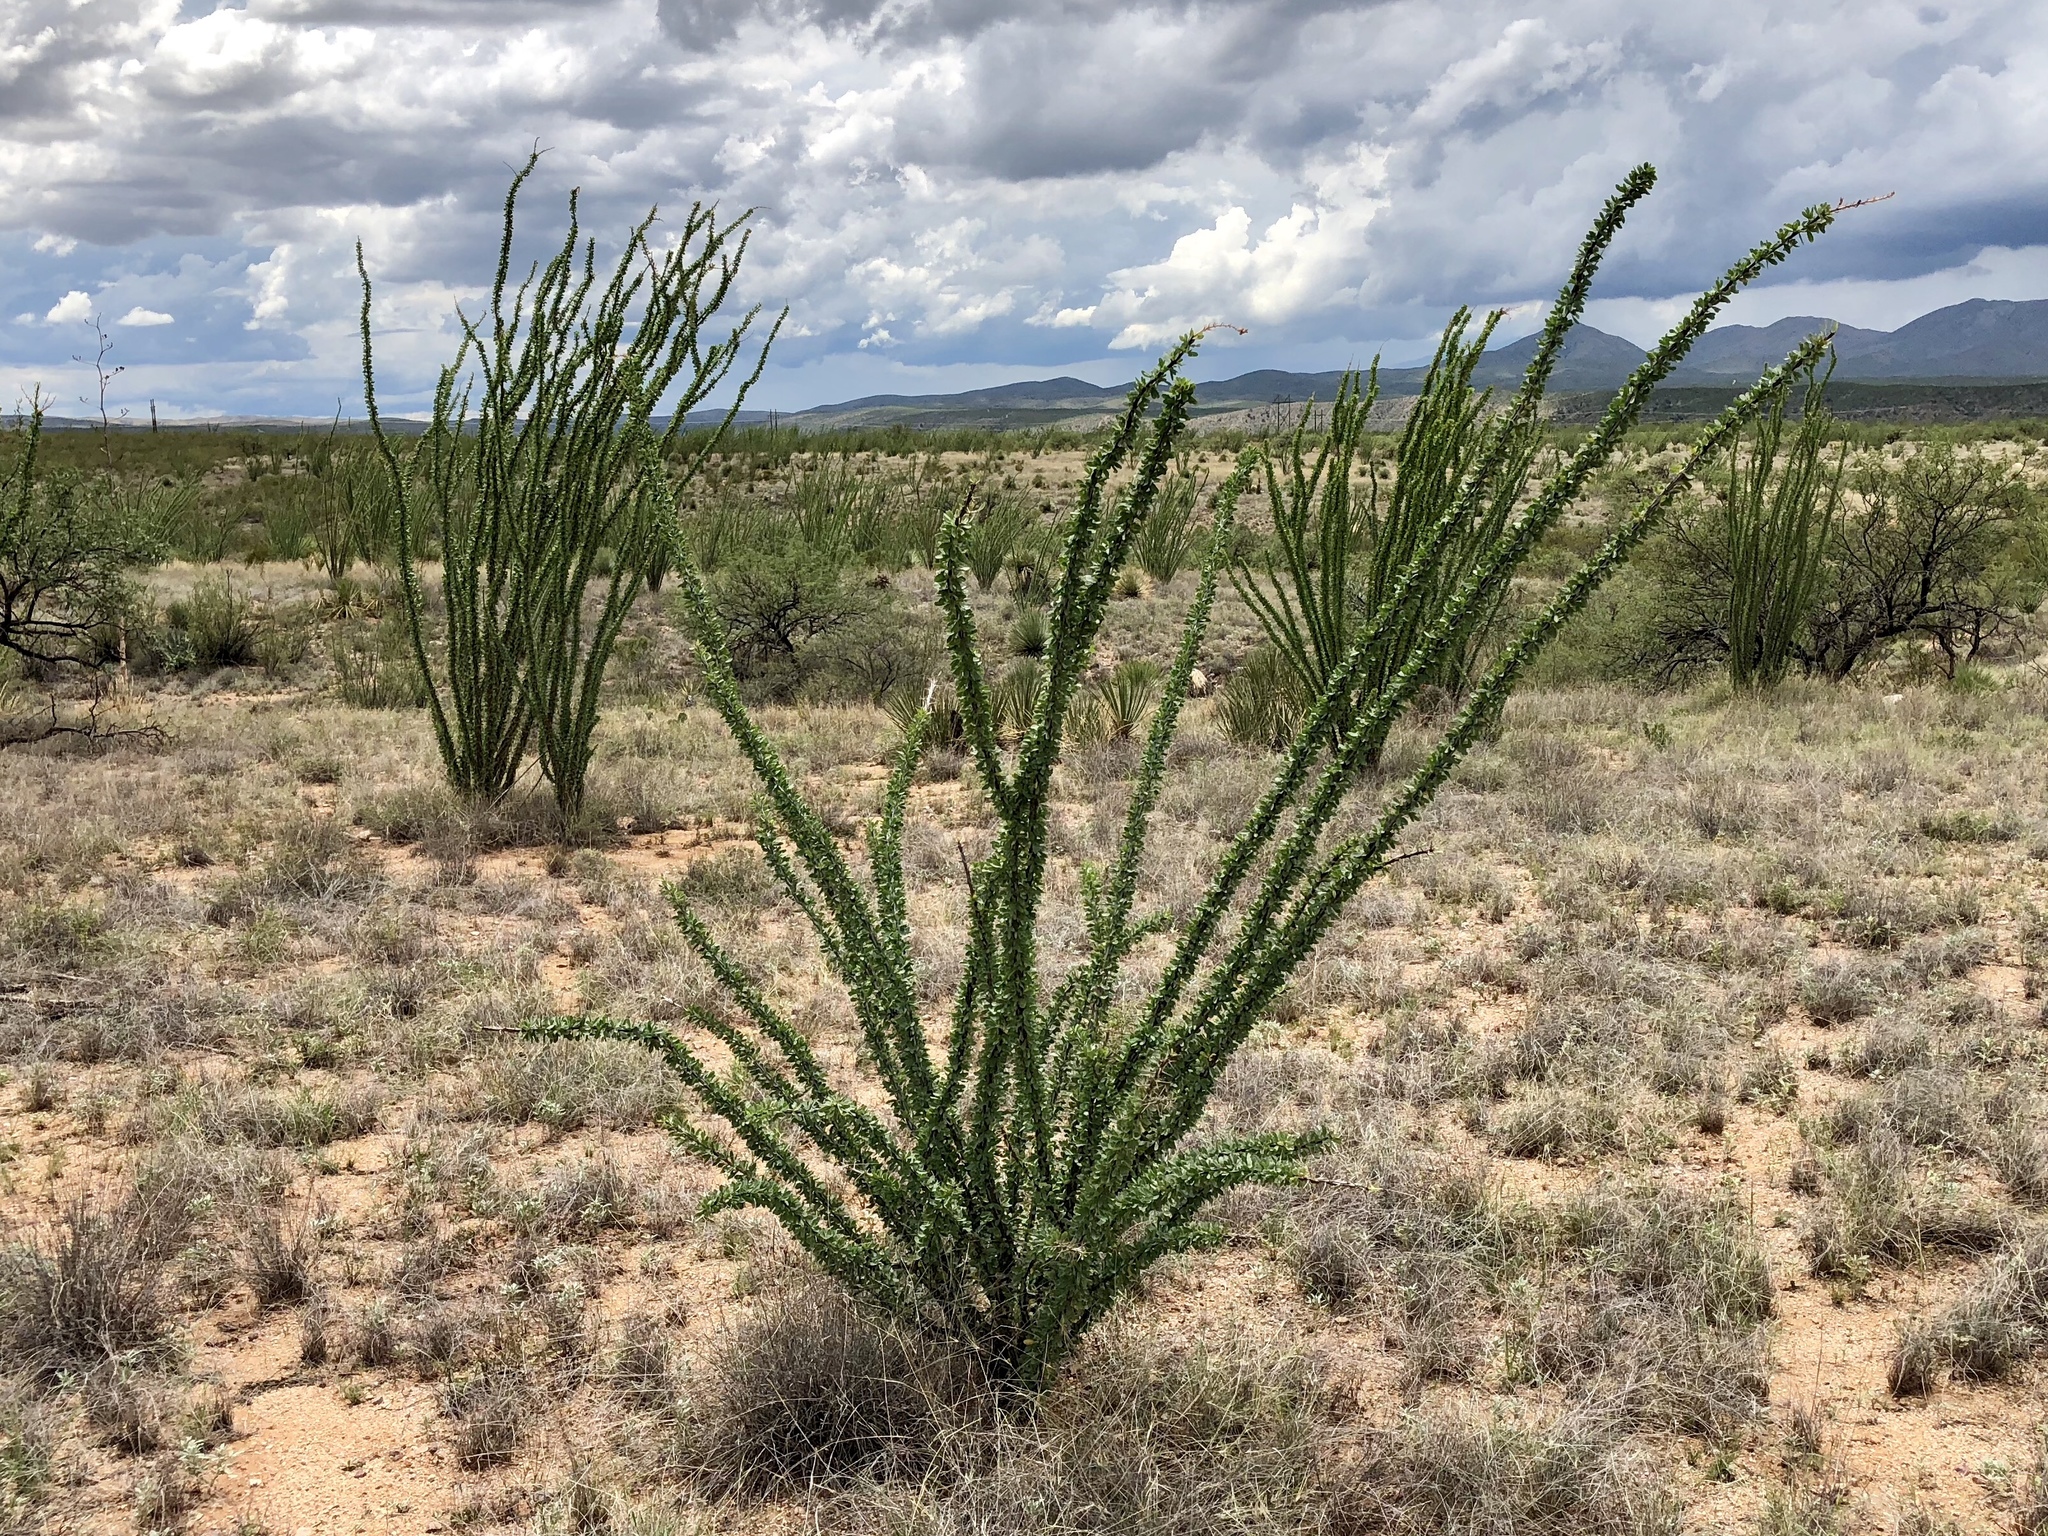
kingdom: Plantae
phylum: Tracheophyta
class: Magnoliopsida
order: Ericales
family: Fouquieriaceae
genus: Fouquieria
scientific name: Fouquieria splendens
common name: Vine-cactus
